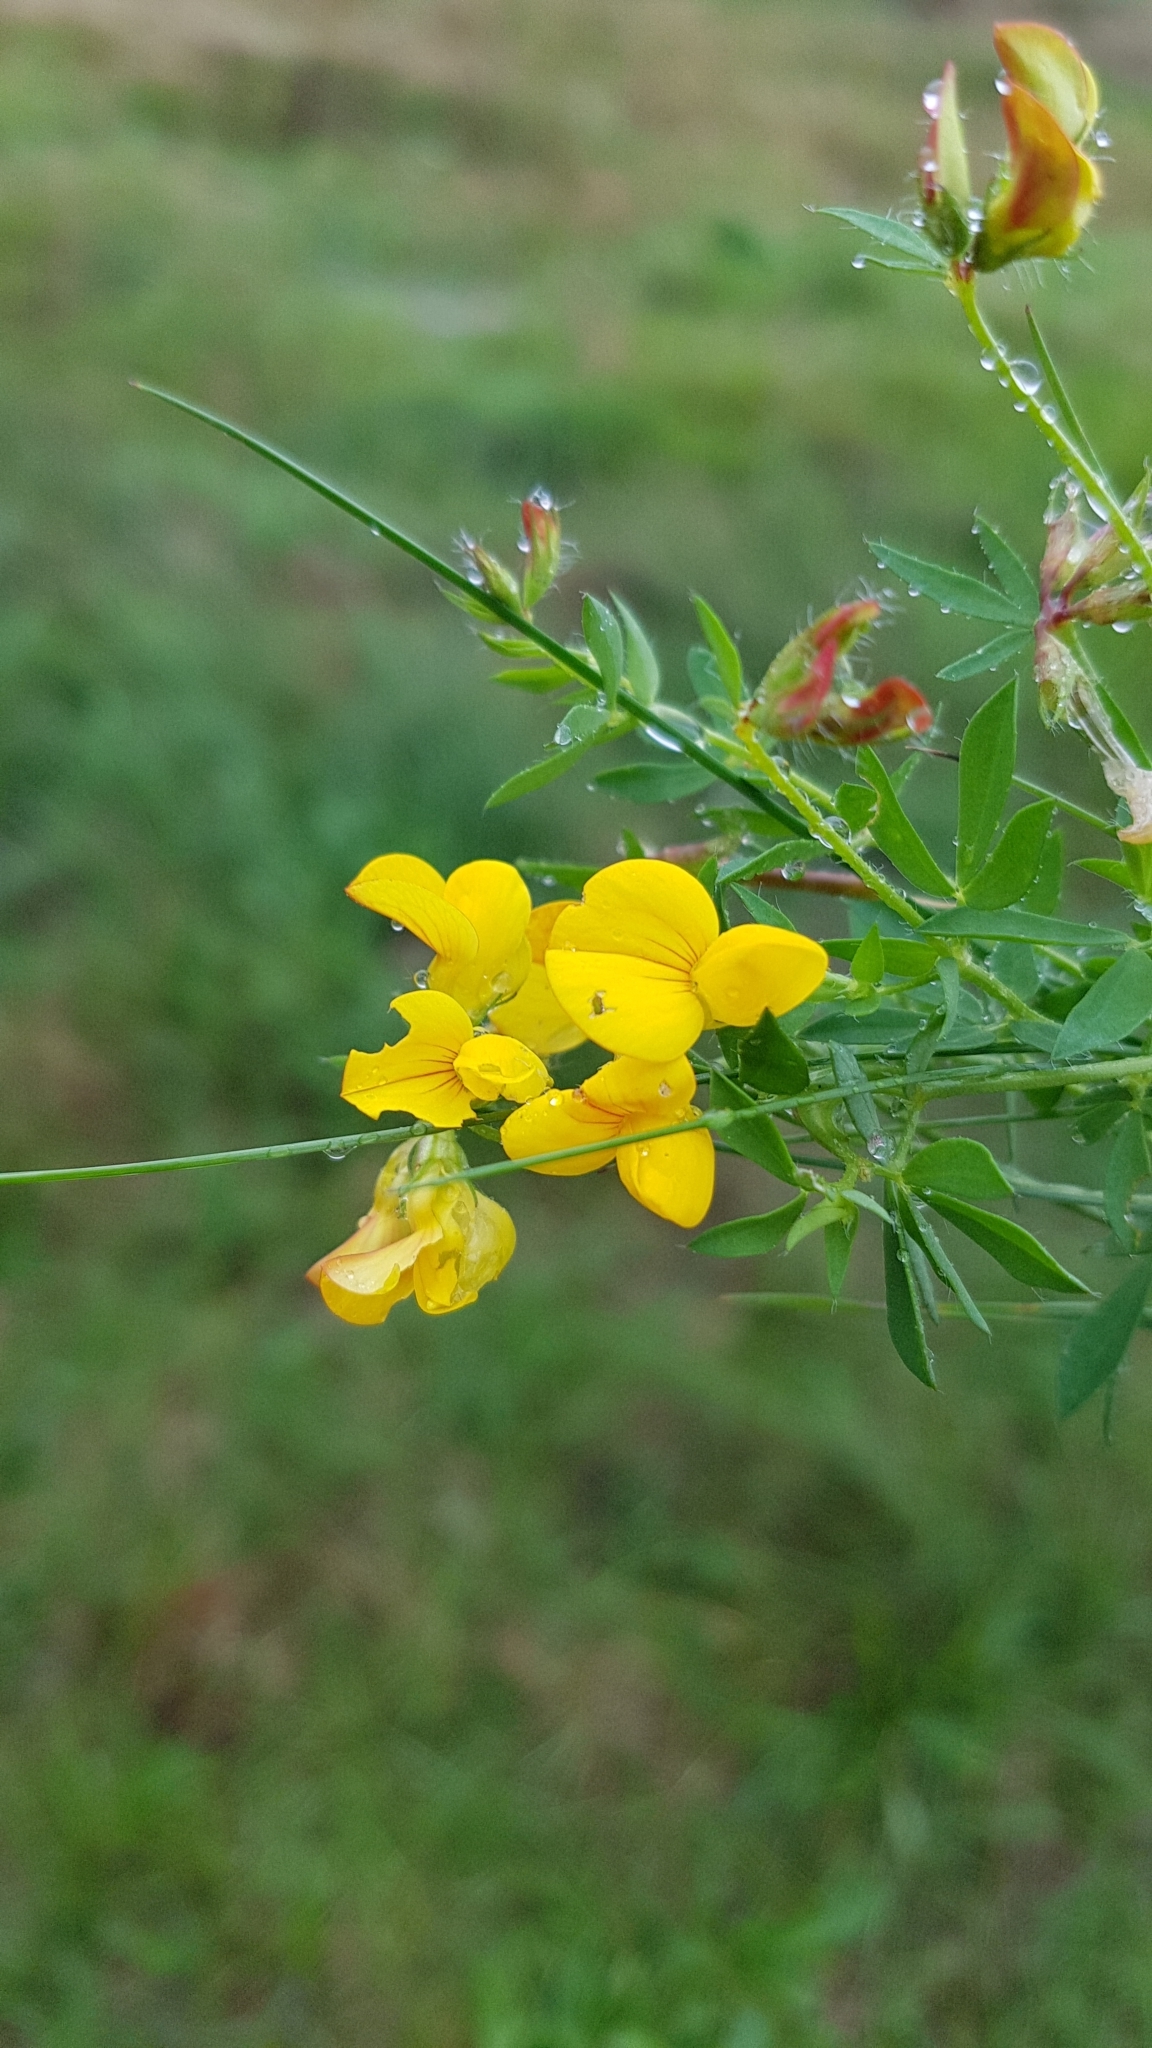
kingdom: Plantae
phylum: Tracheophyta
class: Magnoliopsida
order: Fabales
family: Fabaceae
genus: Lotus
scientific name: Lotus corniculatus
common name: Common bird's-foot-trefoil
